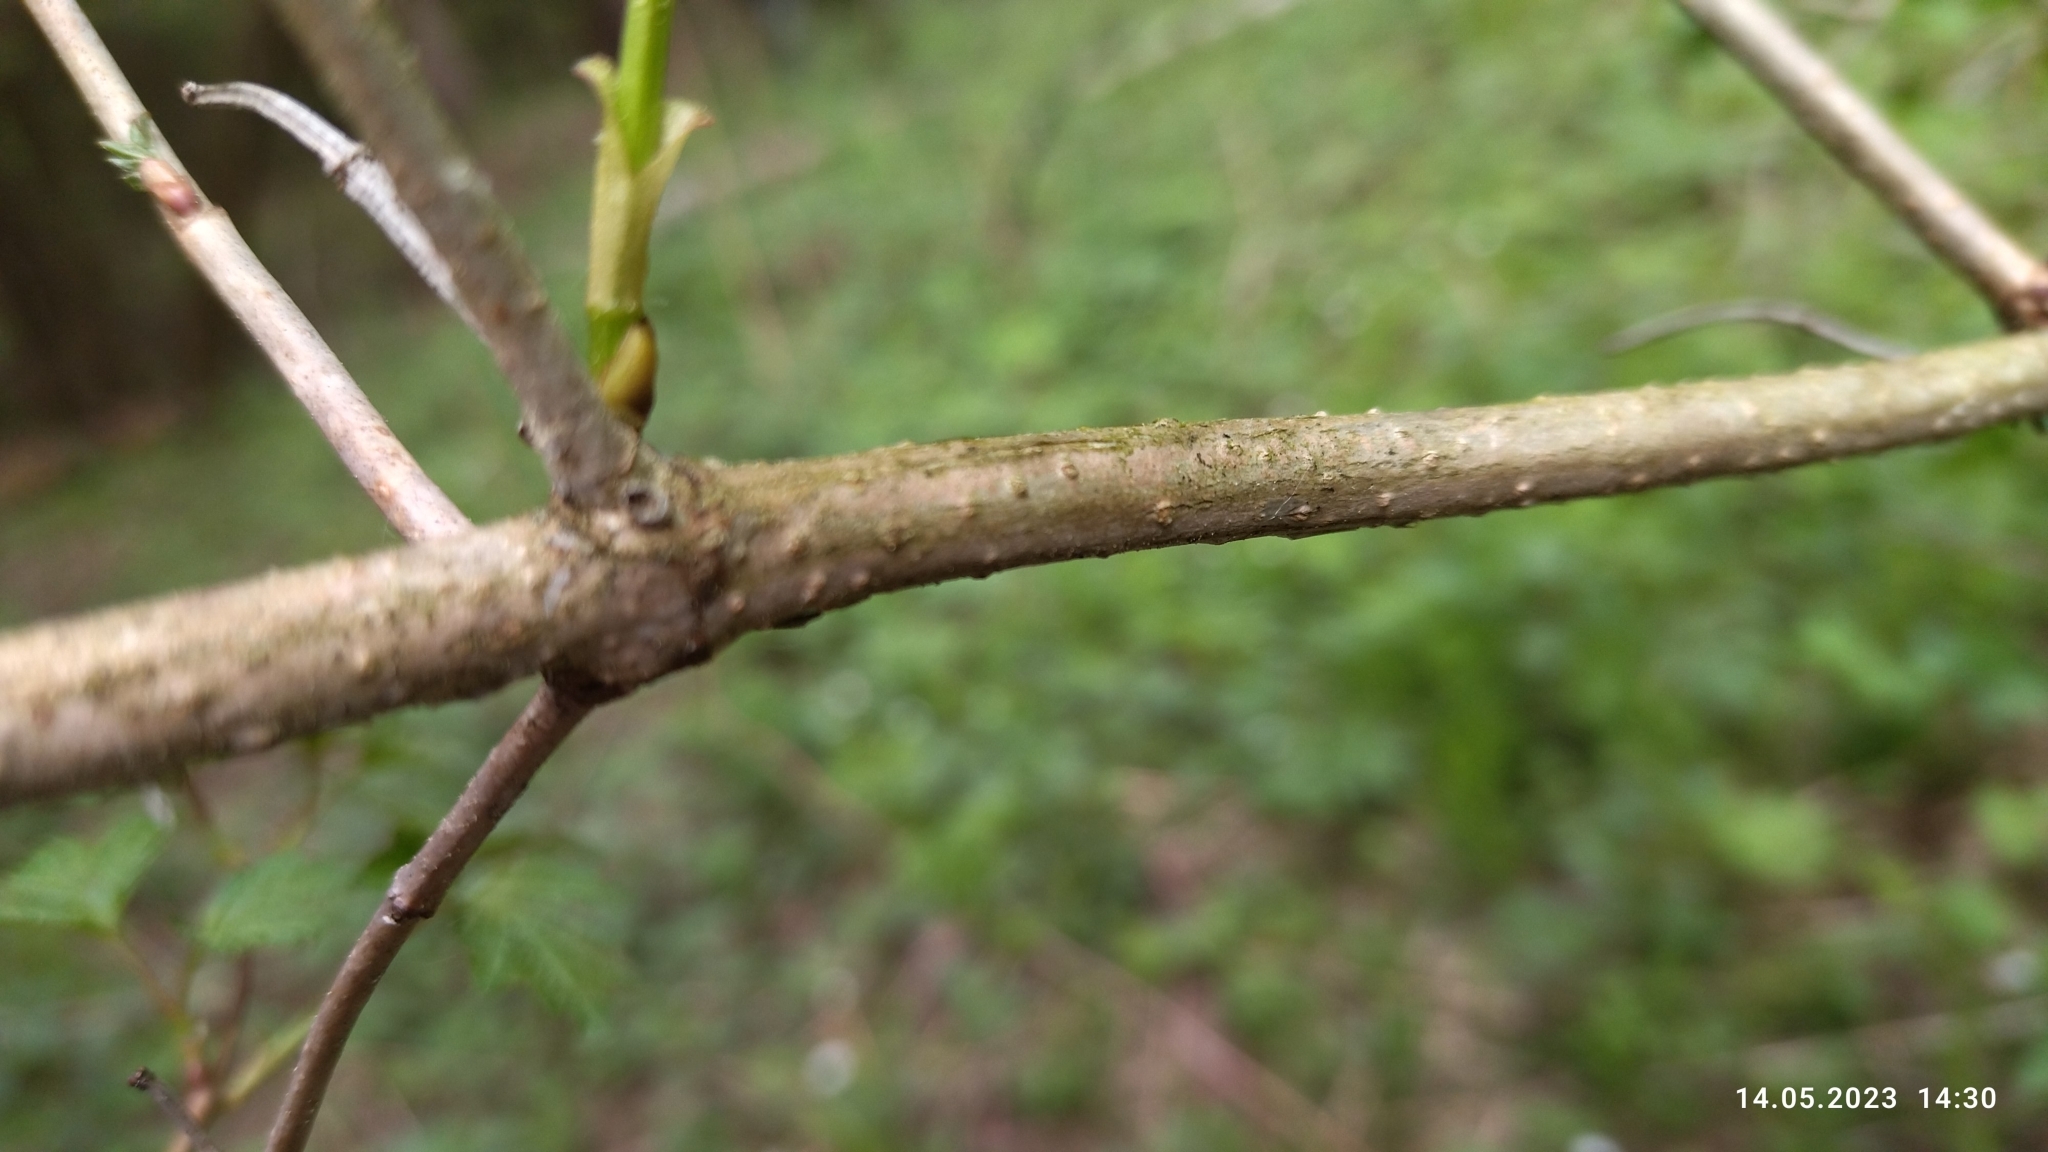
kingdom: Plantae
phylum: Tracheophyta
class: Magnoliopsida
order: Dipsacales
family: Viburnaceae
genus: Viburnum
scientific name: Viburnum opulus
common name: Guelder-rose
